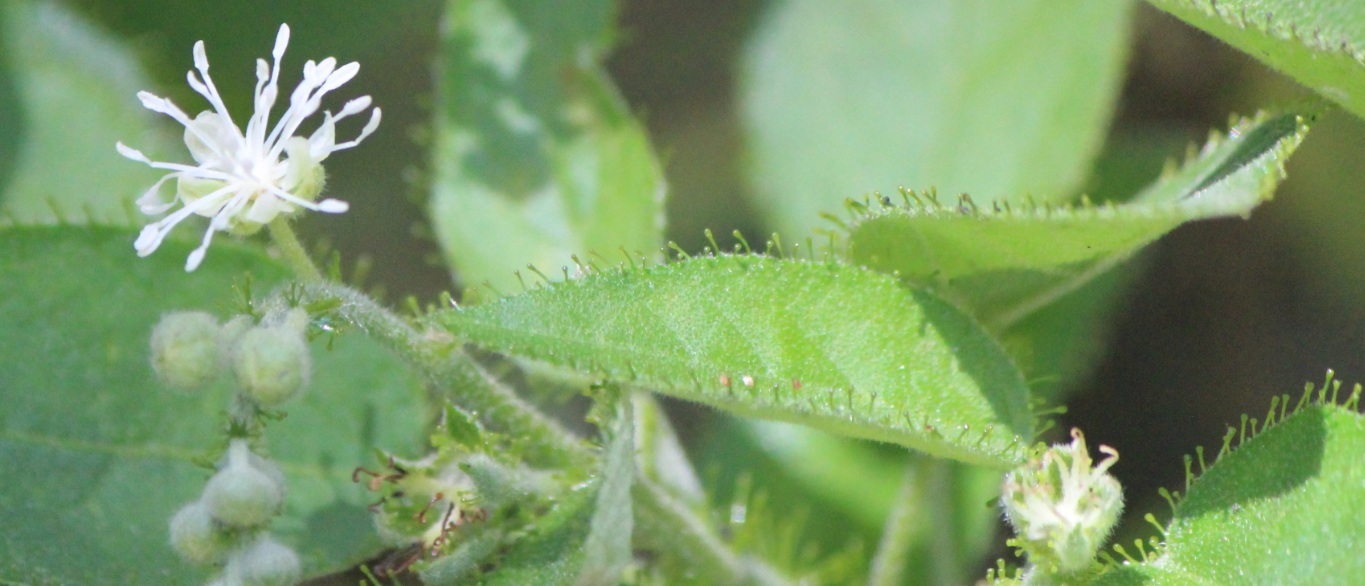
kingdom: Plantae
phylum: Tracheophyta
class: Magnoliopsida
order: Malpighiales
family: Euphorbiaceae
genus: Croton
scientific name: Croton ciliatoglandulifer
